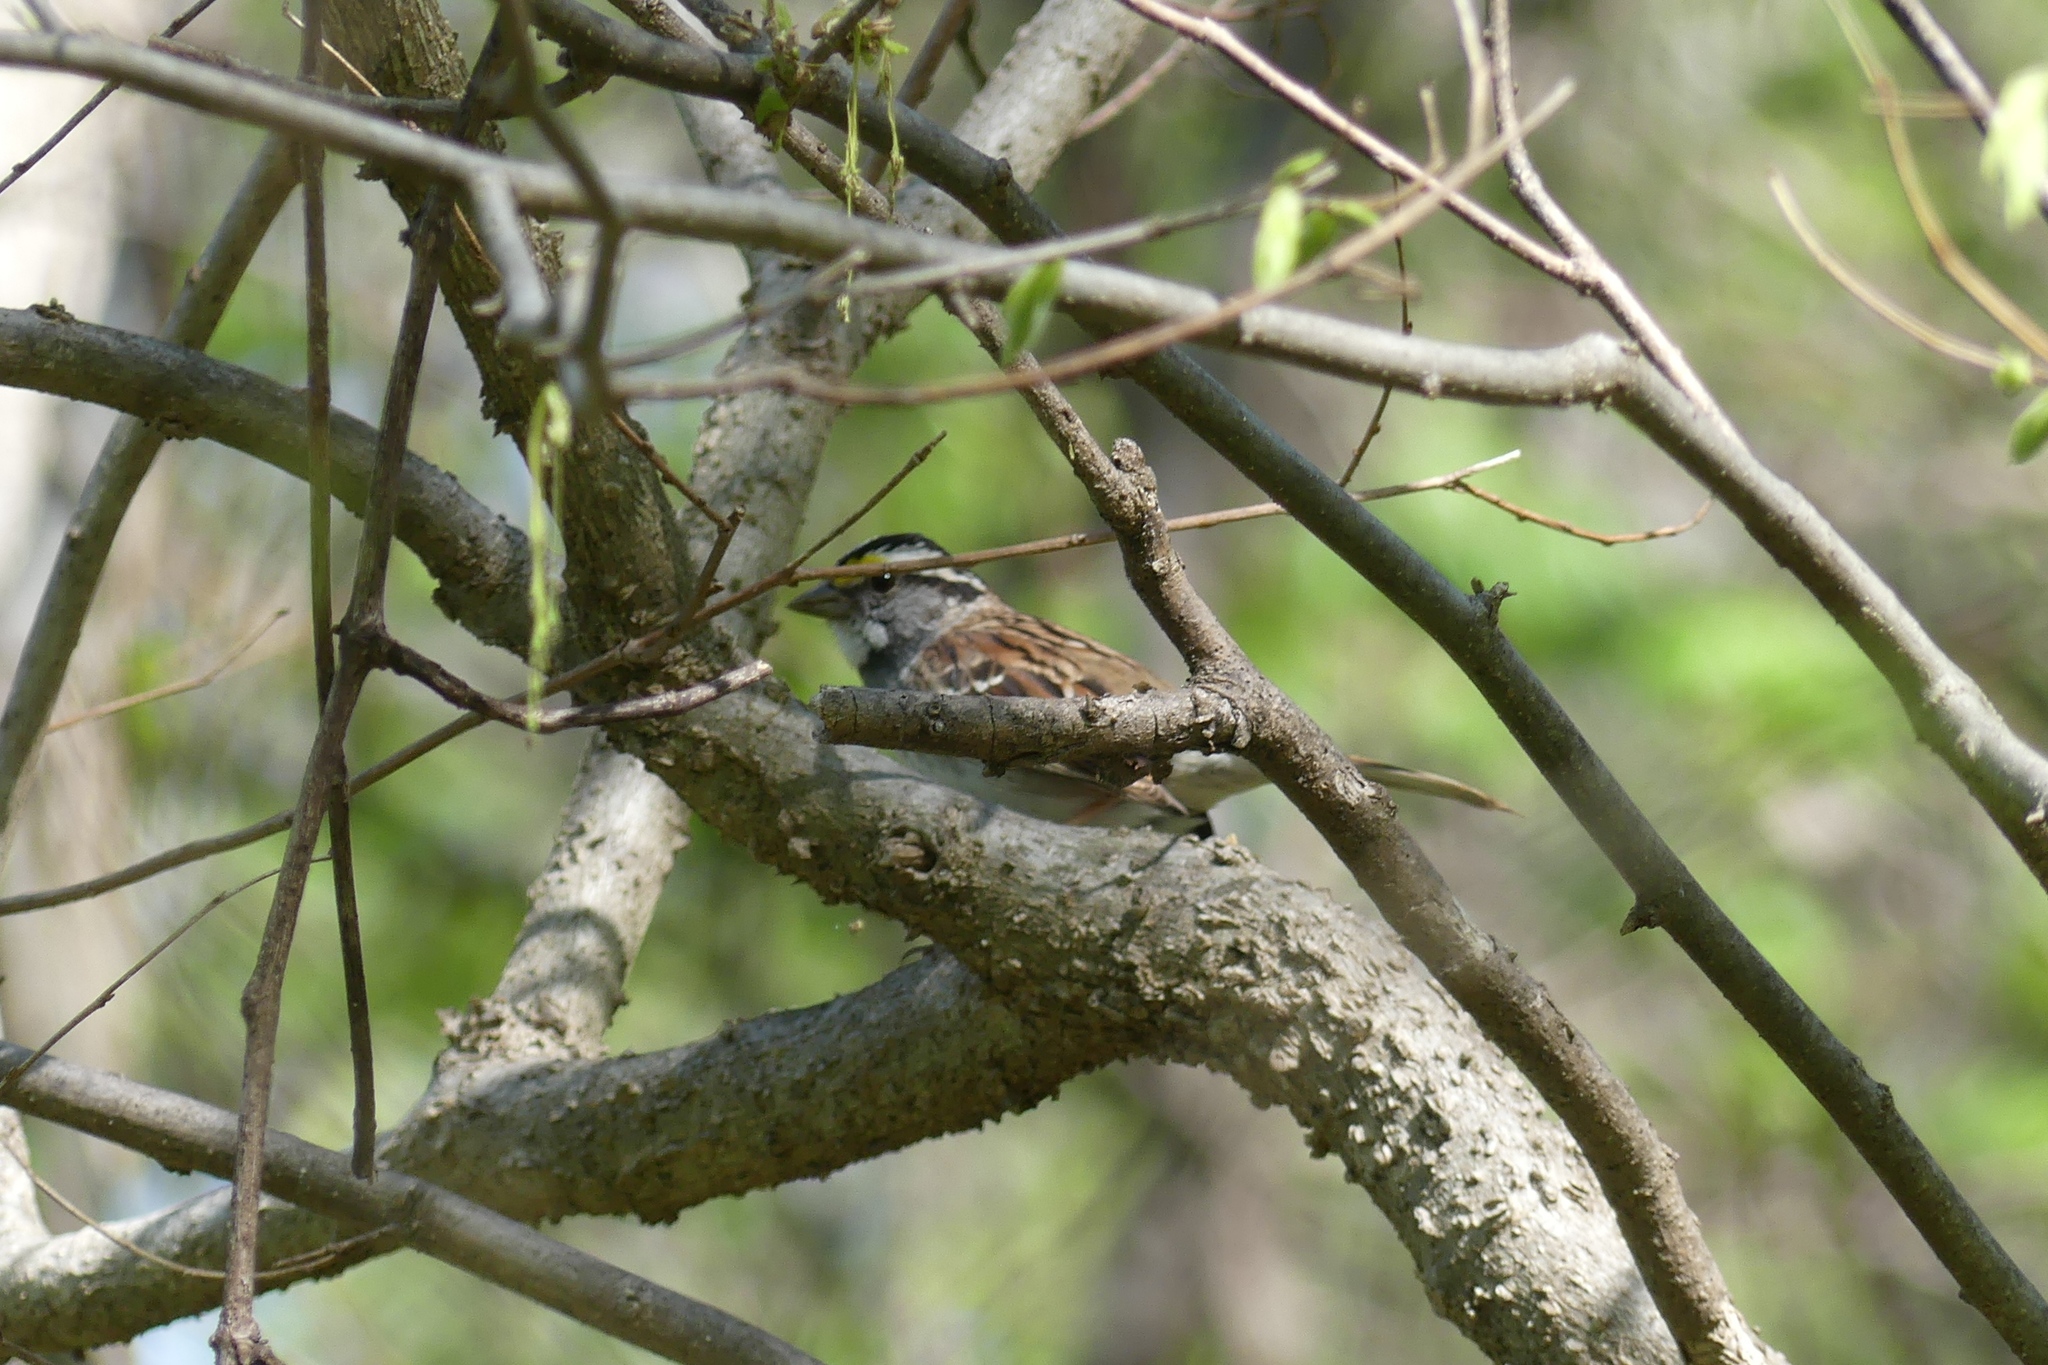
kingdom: Animalia
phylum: Chordata
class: Aves
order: Passeriformes
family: Passerellidae
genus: Zonotrichia
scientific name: Zonotrichia albicollis
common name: White-throated sparrow
